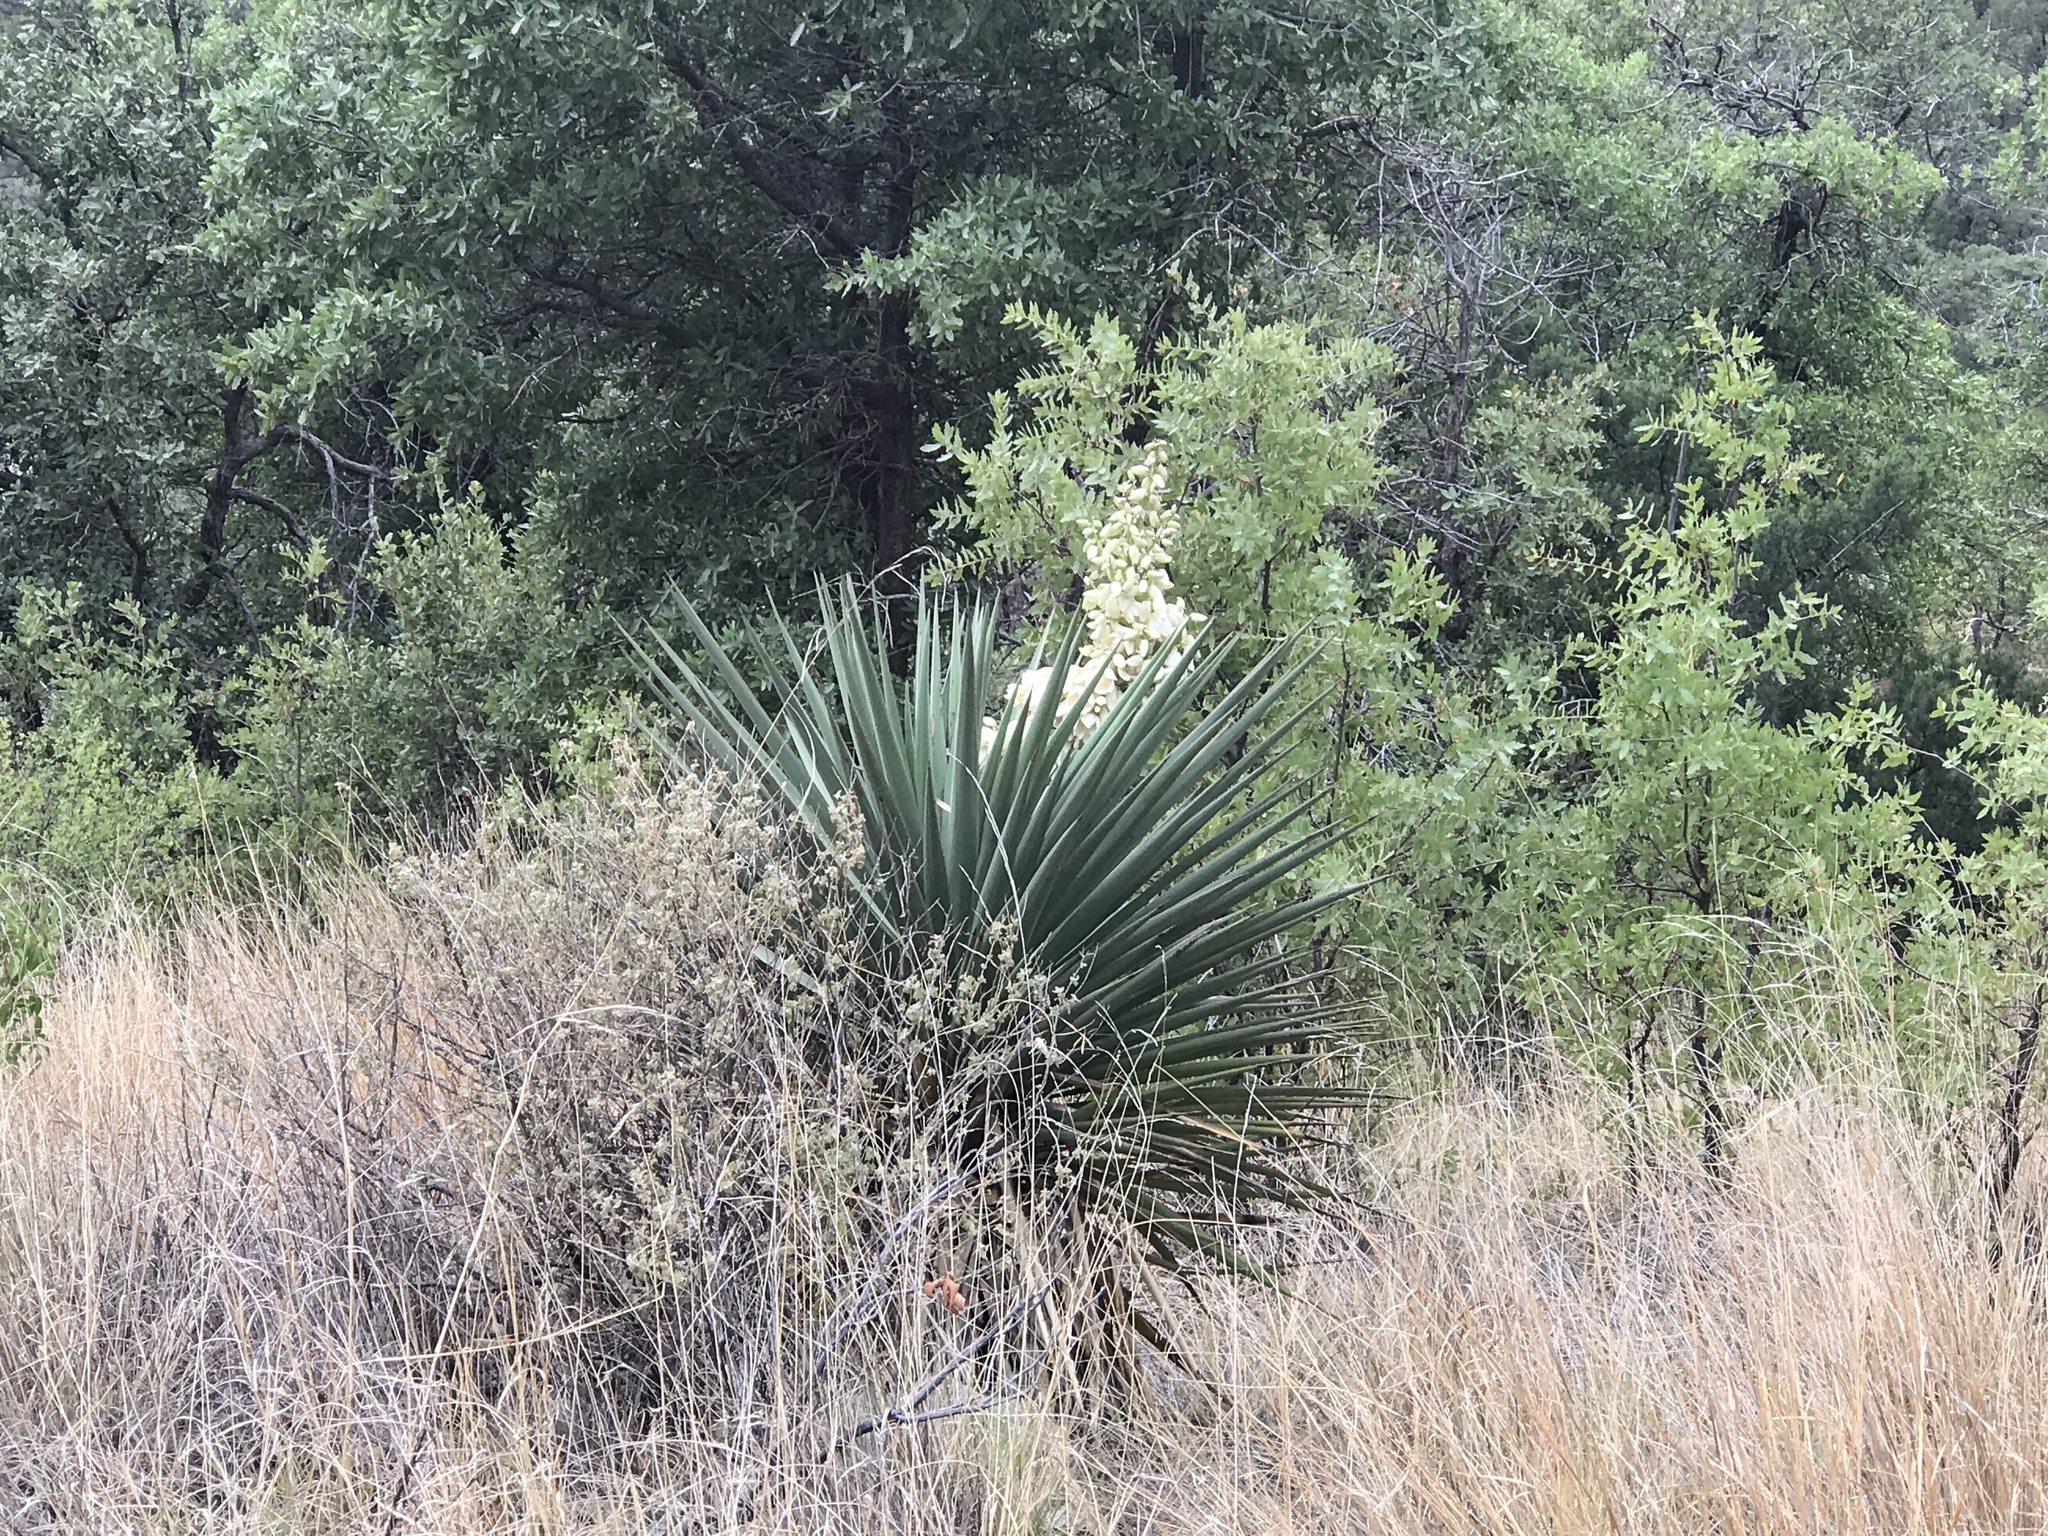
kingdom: Plantae
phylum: Tracheophyta
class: Liliopsida
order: Asparagales
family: Asparagaceae
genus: Yucca
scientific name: Yucca schottii
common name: Hoary yucca
